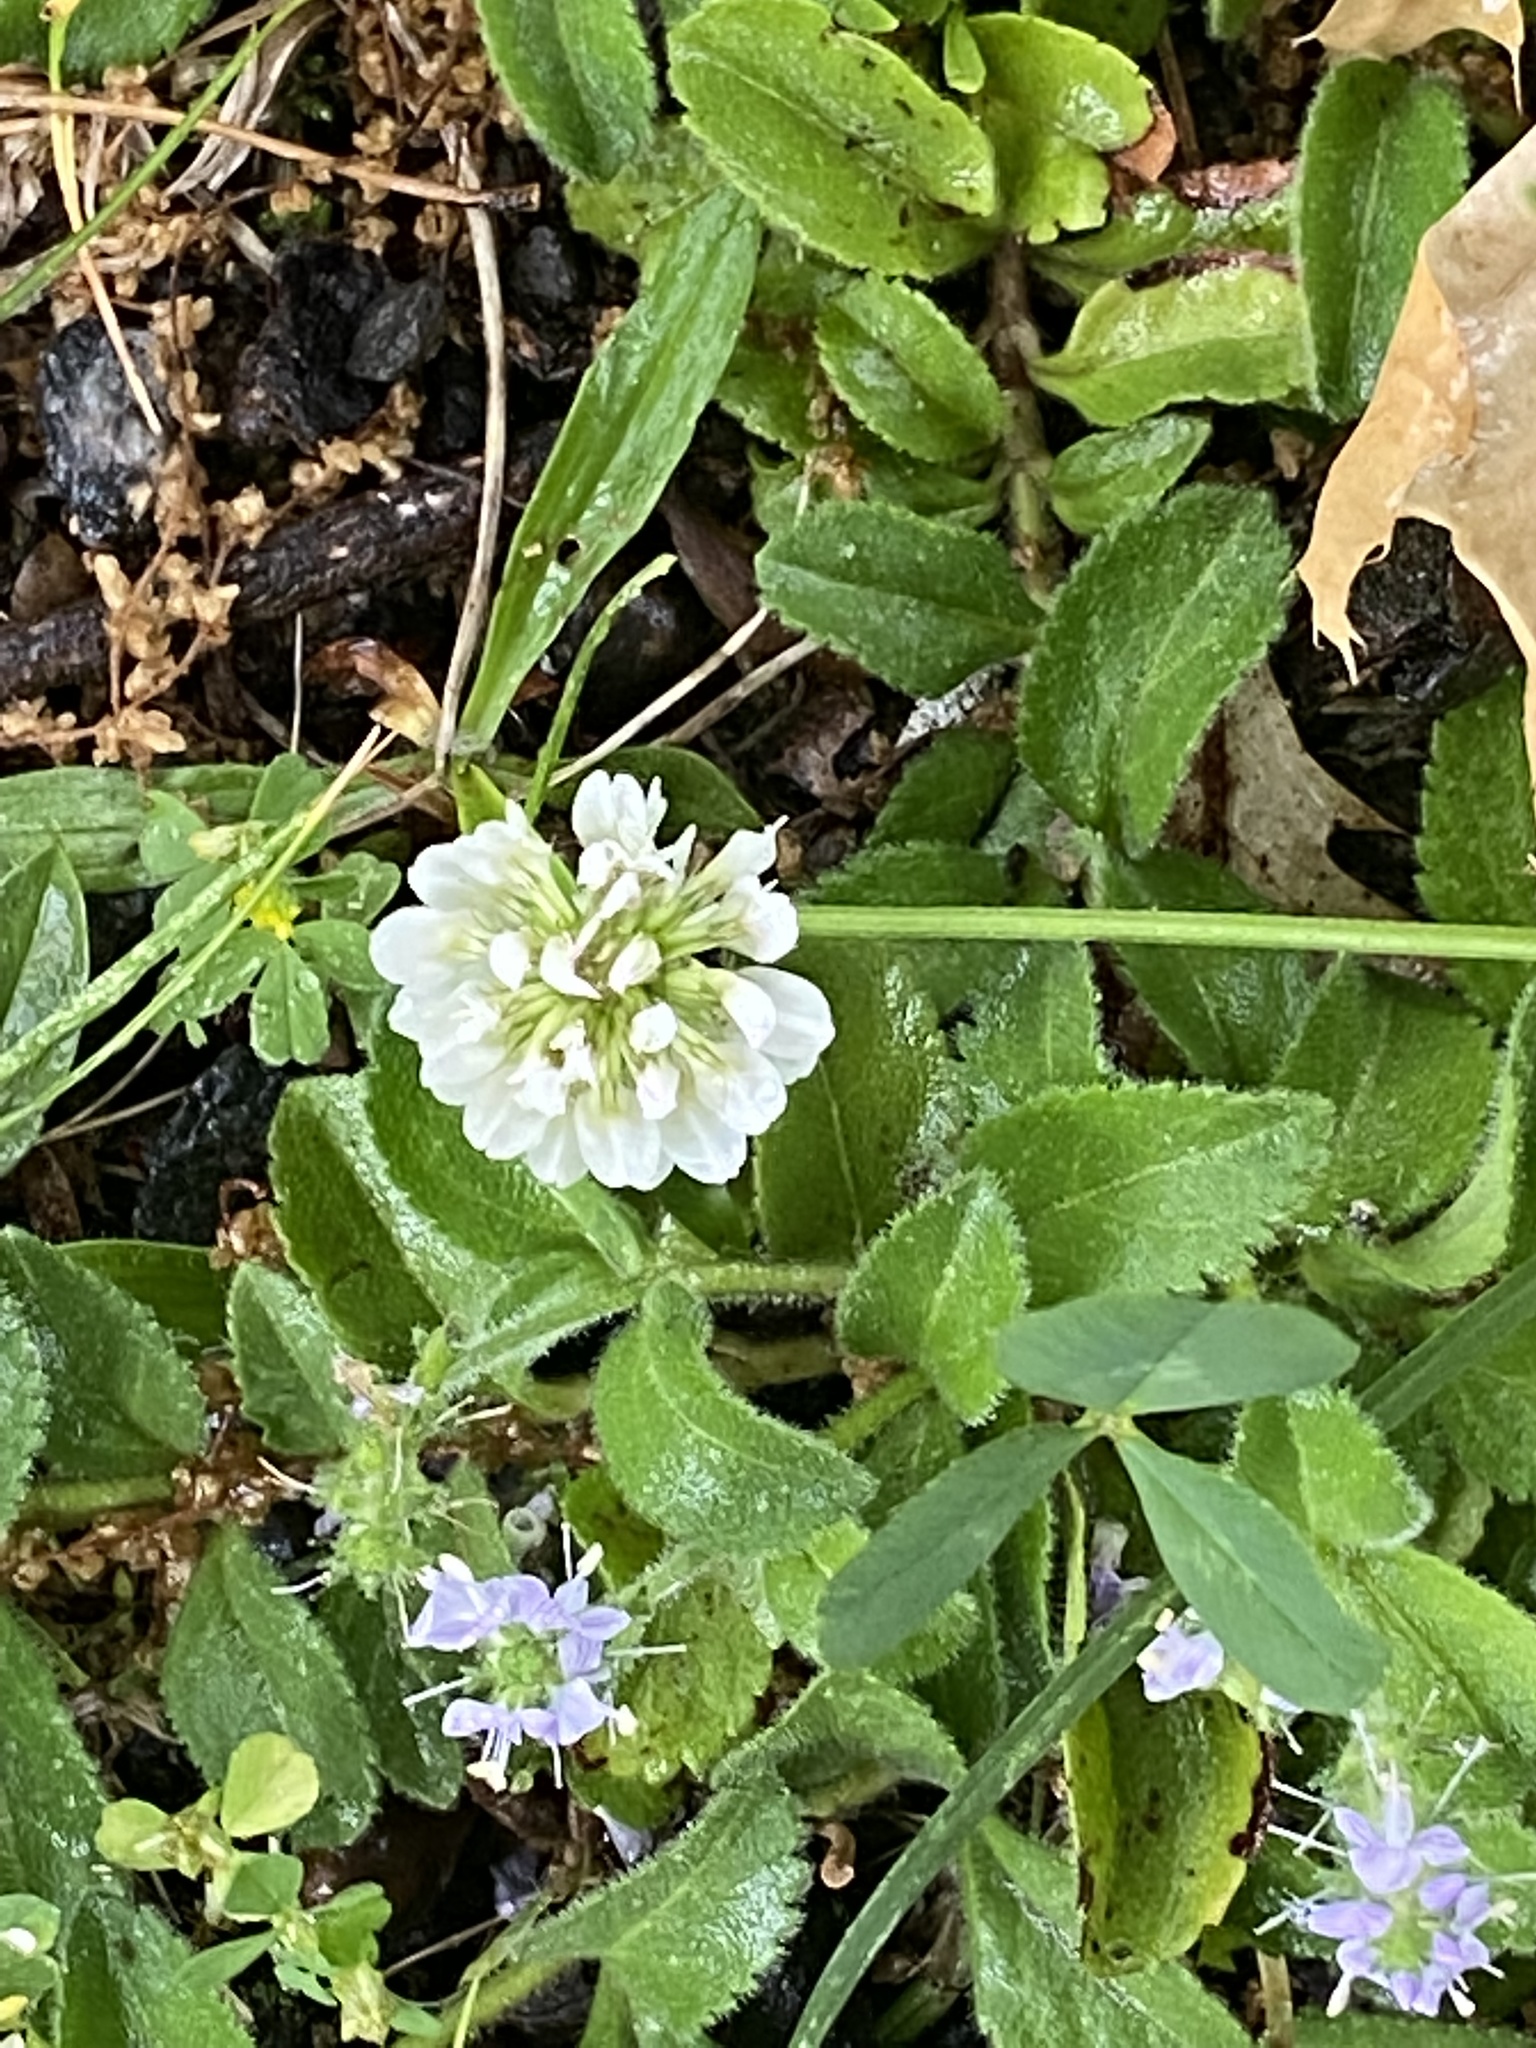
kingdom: Plantae
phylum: Tracheophyta
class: Magnoliopsida
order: Fabales
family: Fabaceae
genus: Trifolium
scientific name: Trifolium repens
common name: White clover
